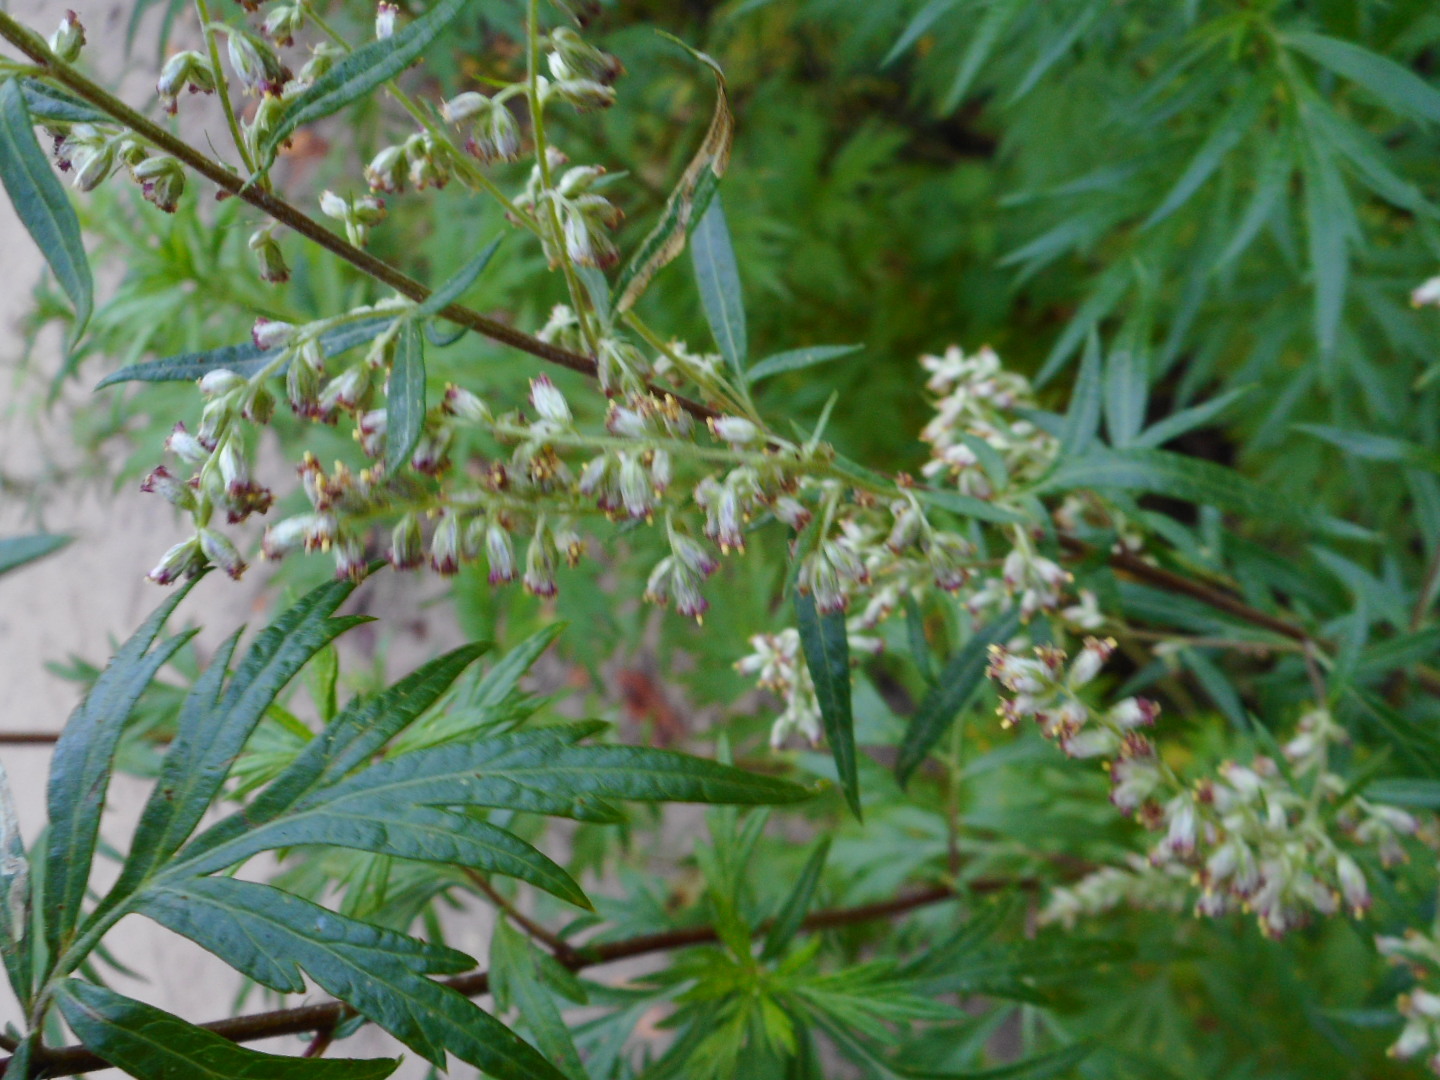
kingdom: Plantae
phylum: Tracheophyta
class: Magnoliopsida
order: Asterales
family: Asteraceae
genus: Artemisia
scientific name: Artemisia vulgaris
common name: Mugwort
